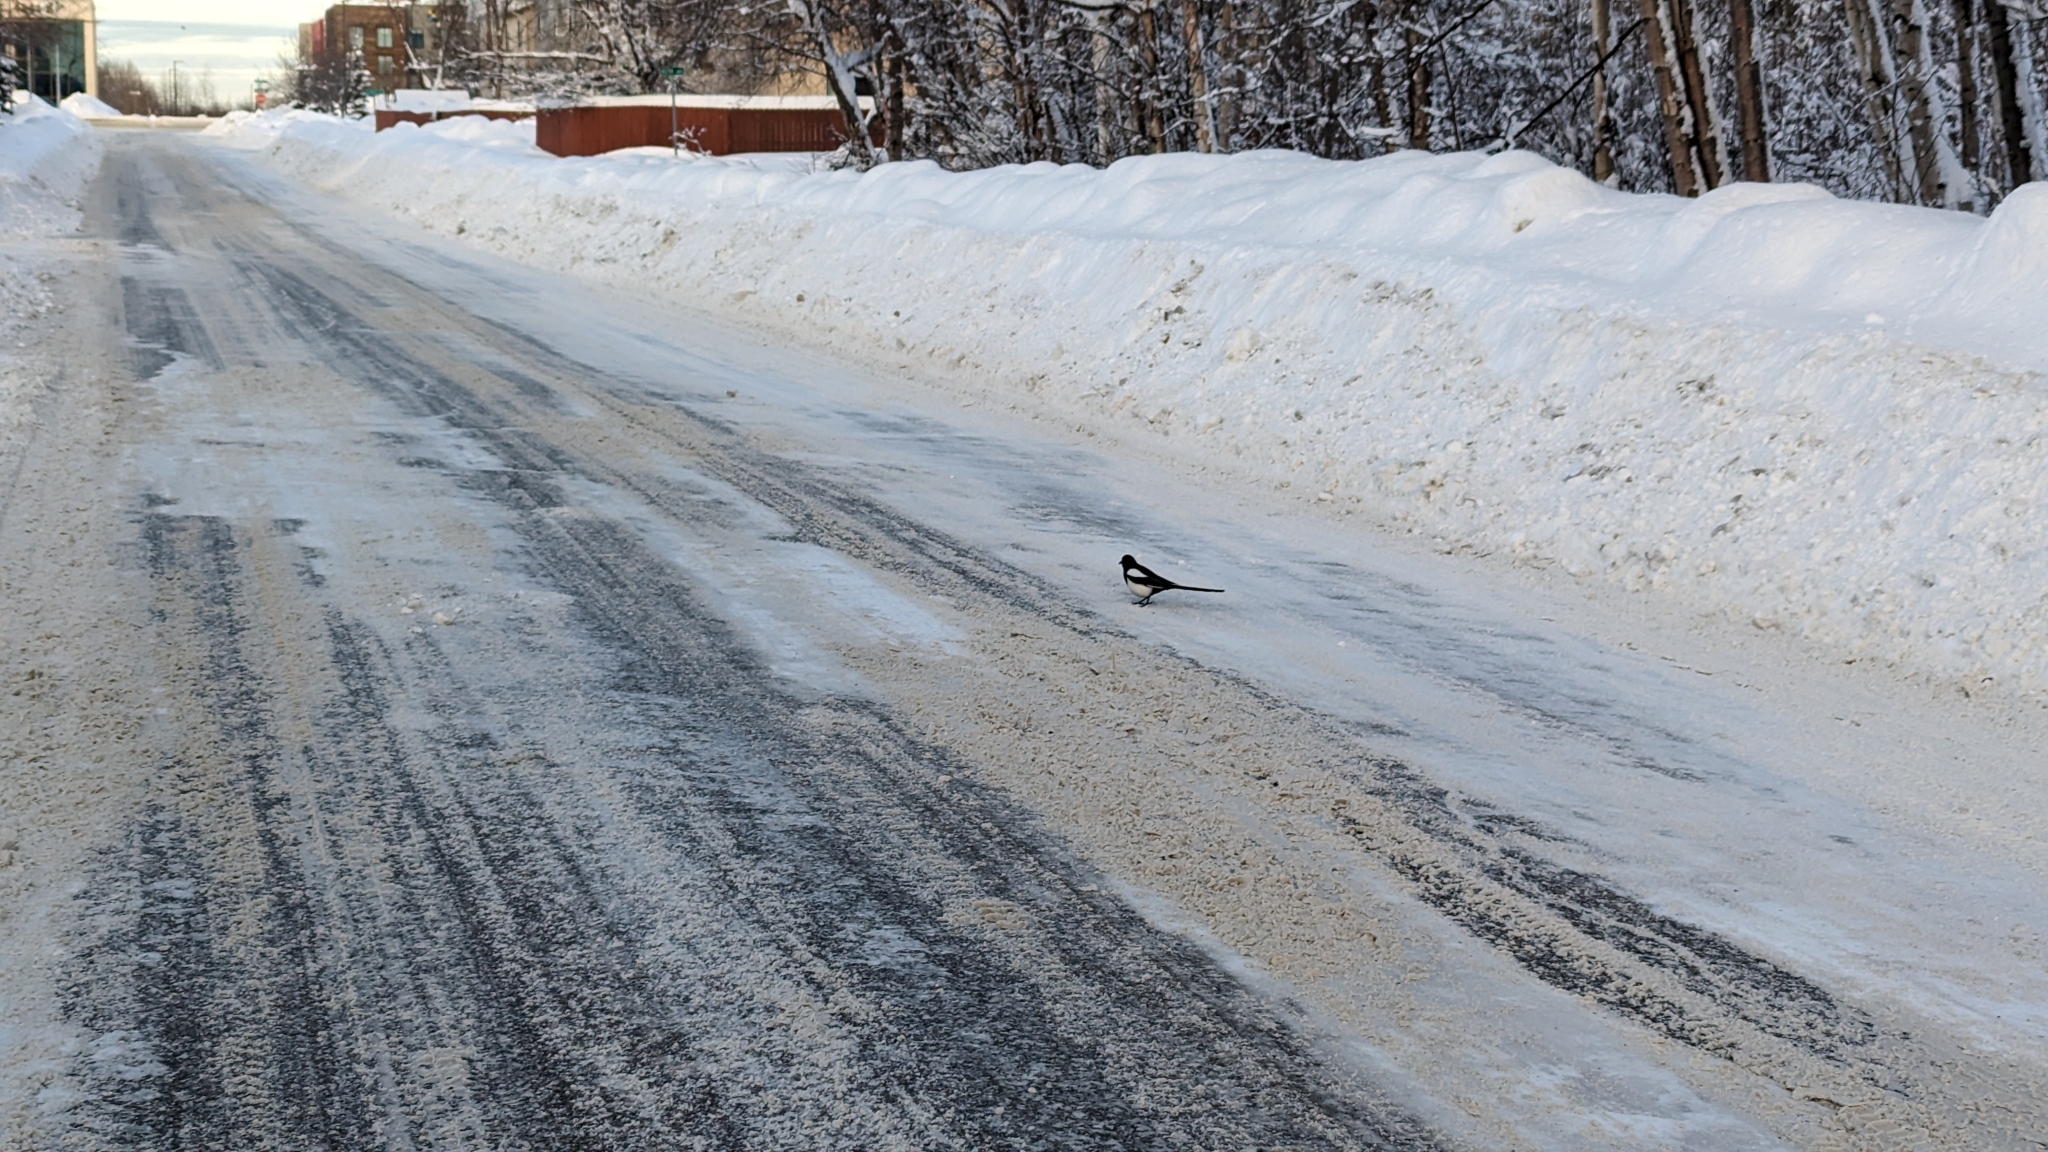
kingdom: Animalia
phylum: Chordata
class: Aves
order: Passeriformes
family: Corvidae
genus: Pica
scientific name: Pica hudsonia
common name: Black-billed magpie
